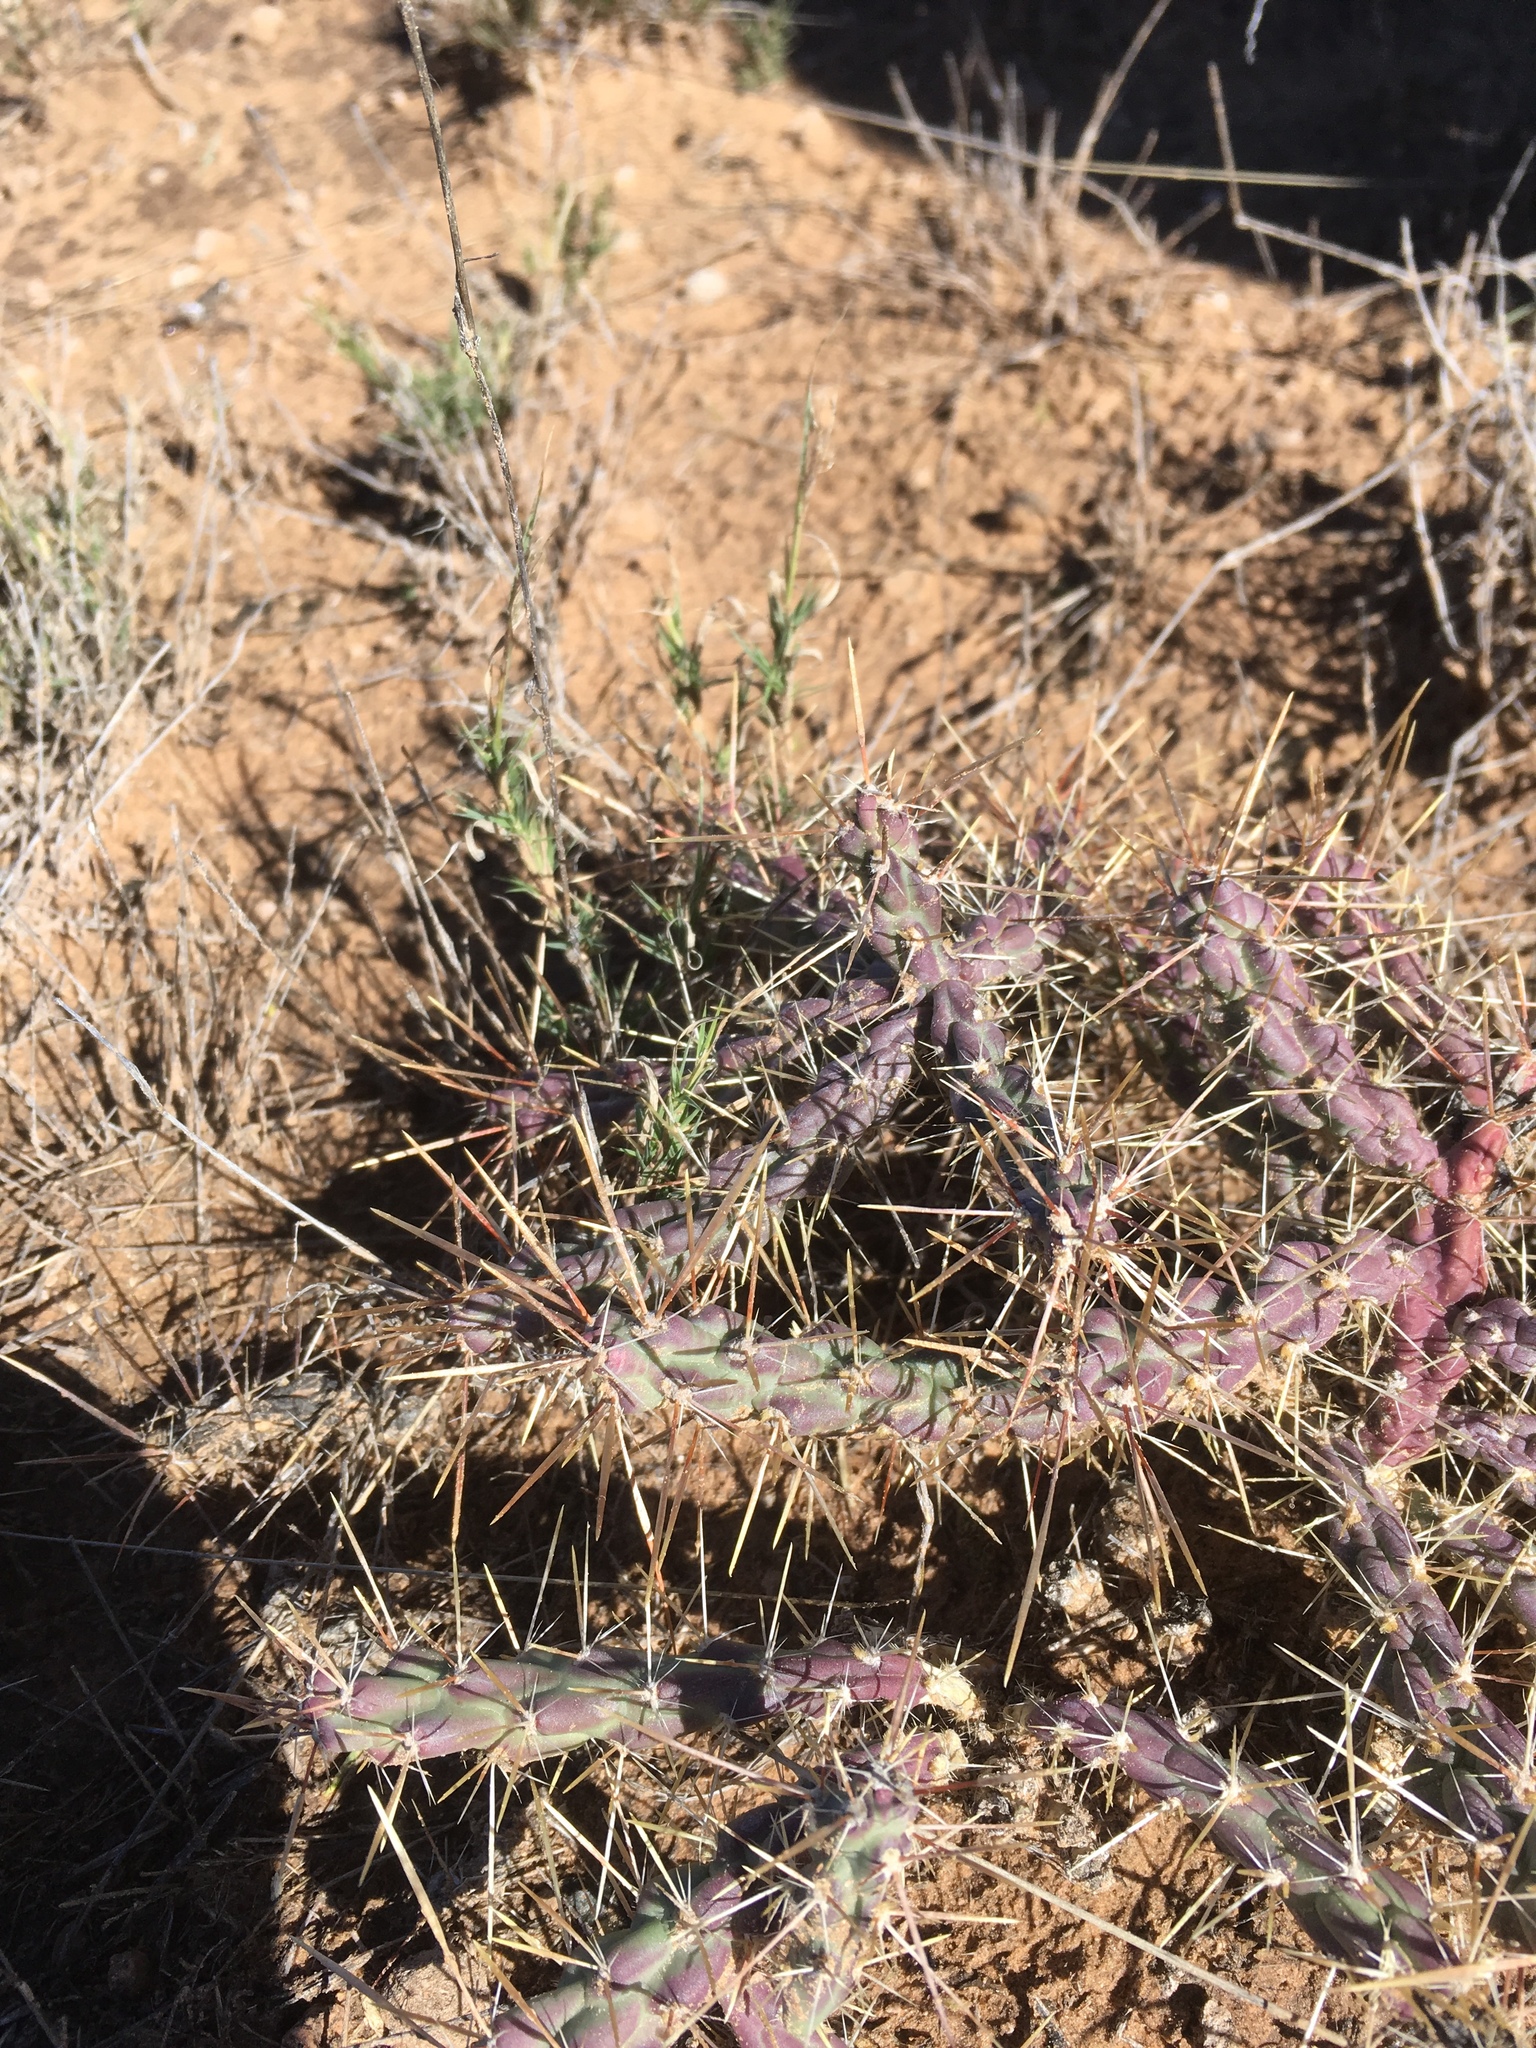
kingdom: Plantae
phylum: Tracheophyta
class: Magnoliopsida
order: Caryophyllales
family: Cactaceae
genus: Cylindropuntia
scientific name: Cylindropuntia davisii
